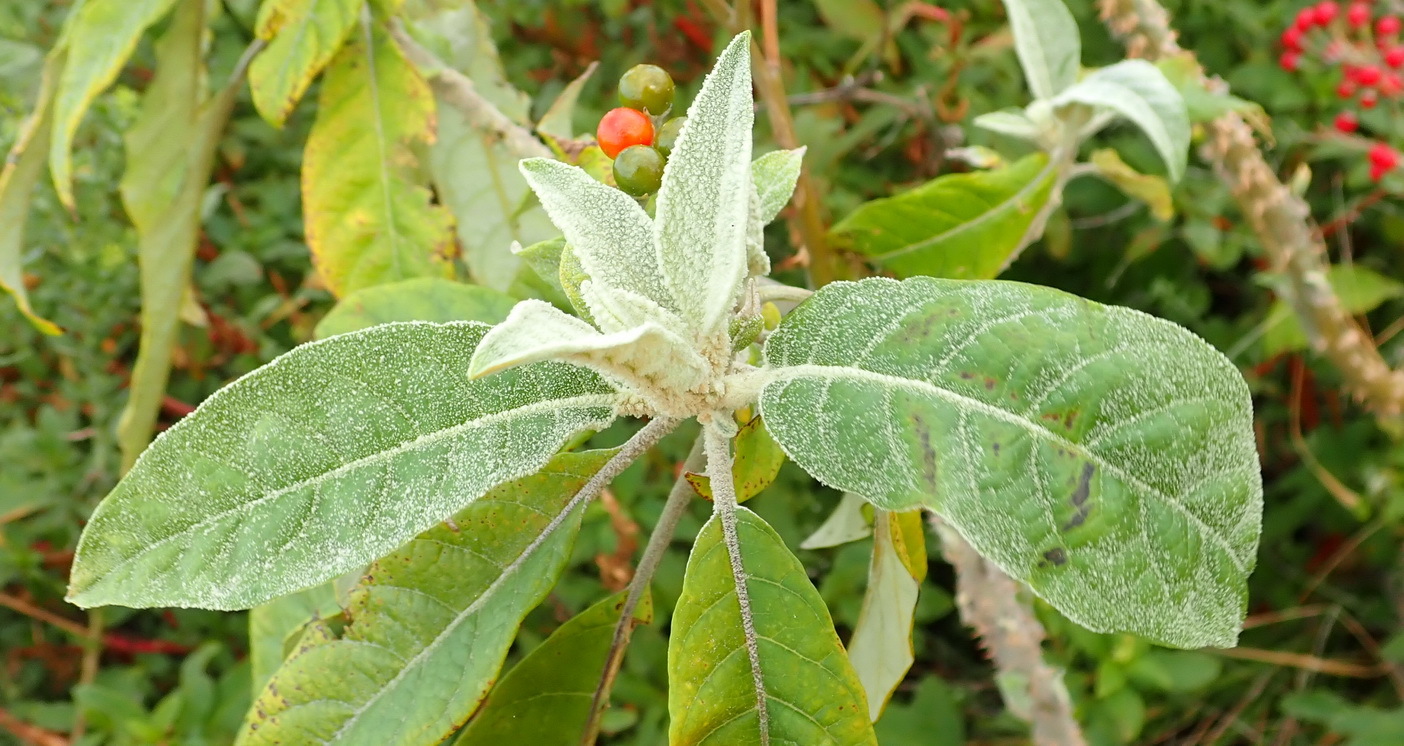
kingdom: Plantae
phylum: Tracheophyta
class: Magnoliopsida
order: Solanales
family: Solanaceae
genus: Solanum
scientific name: Solanum giganteum
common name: Healing-leaf-tree
